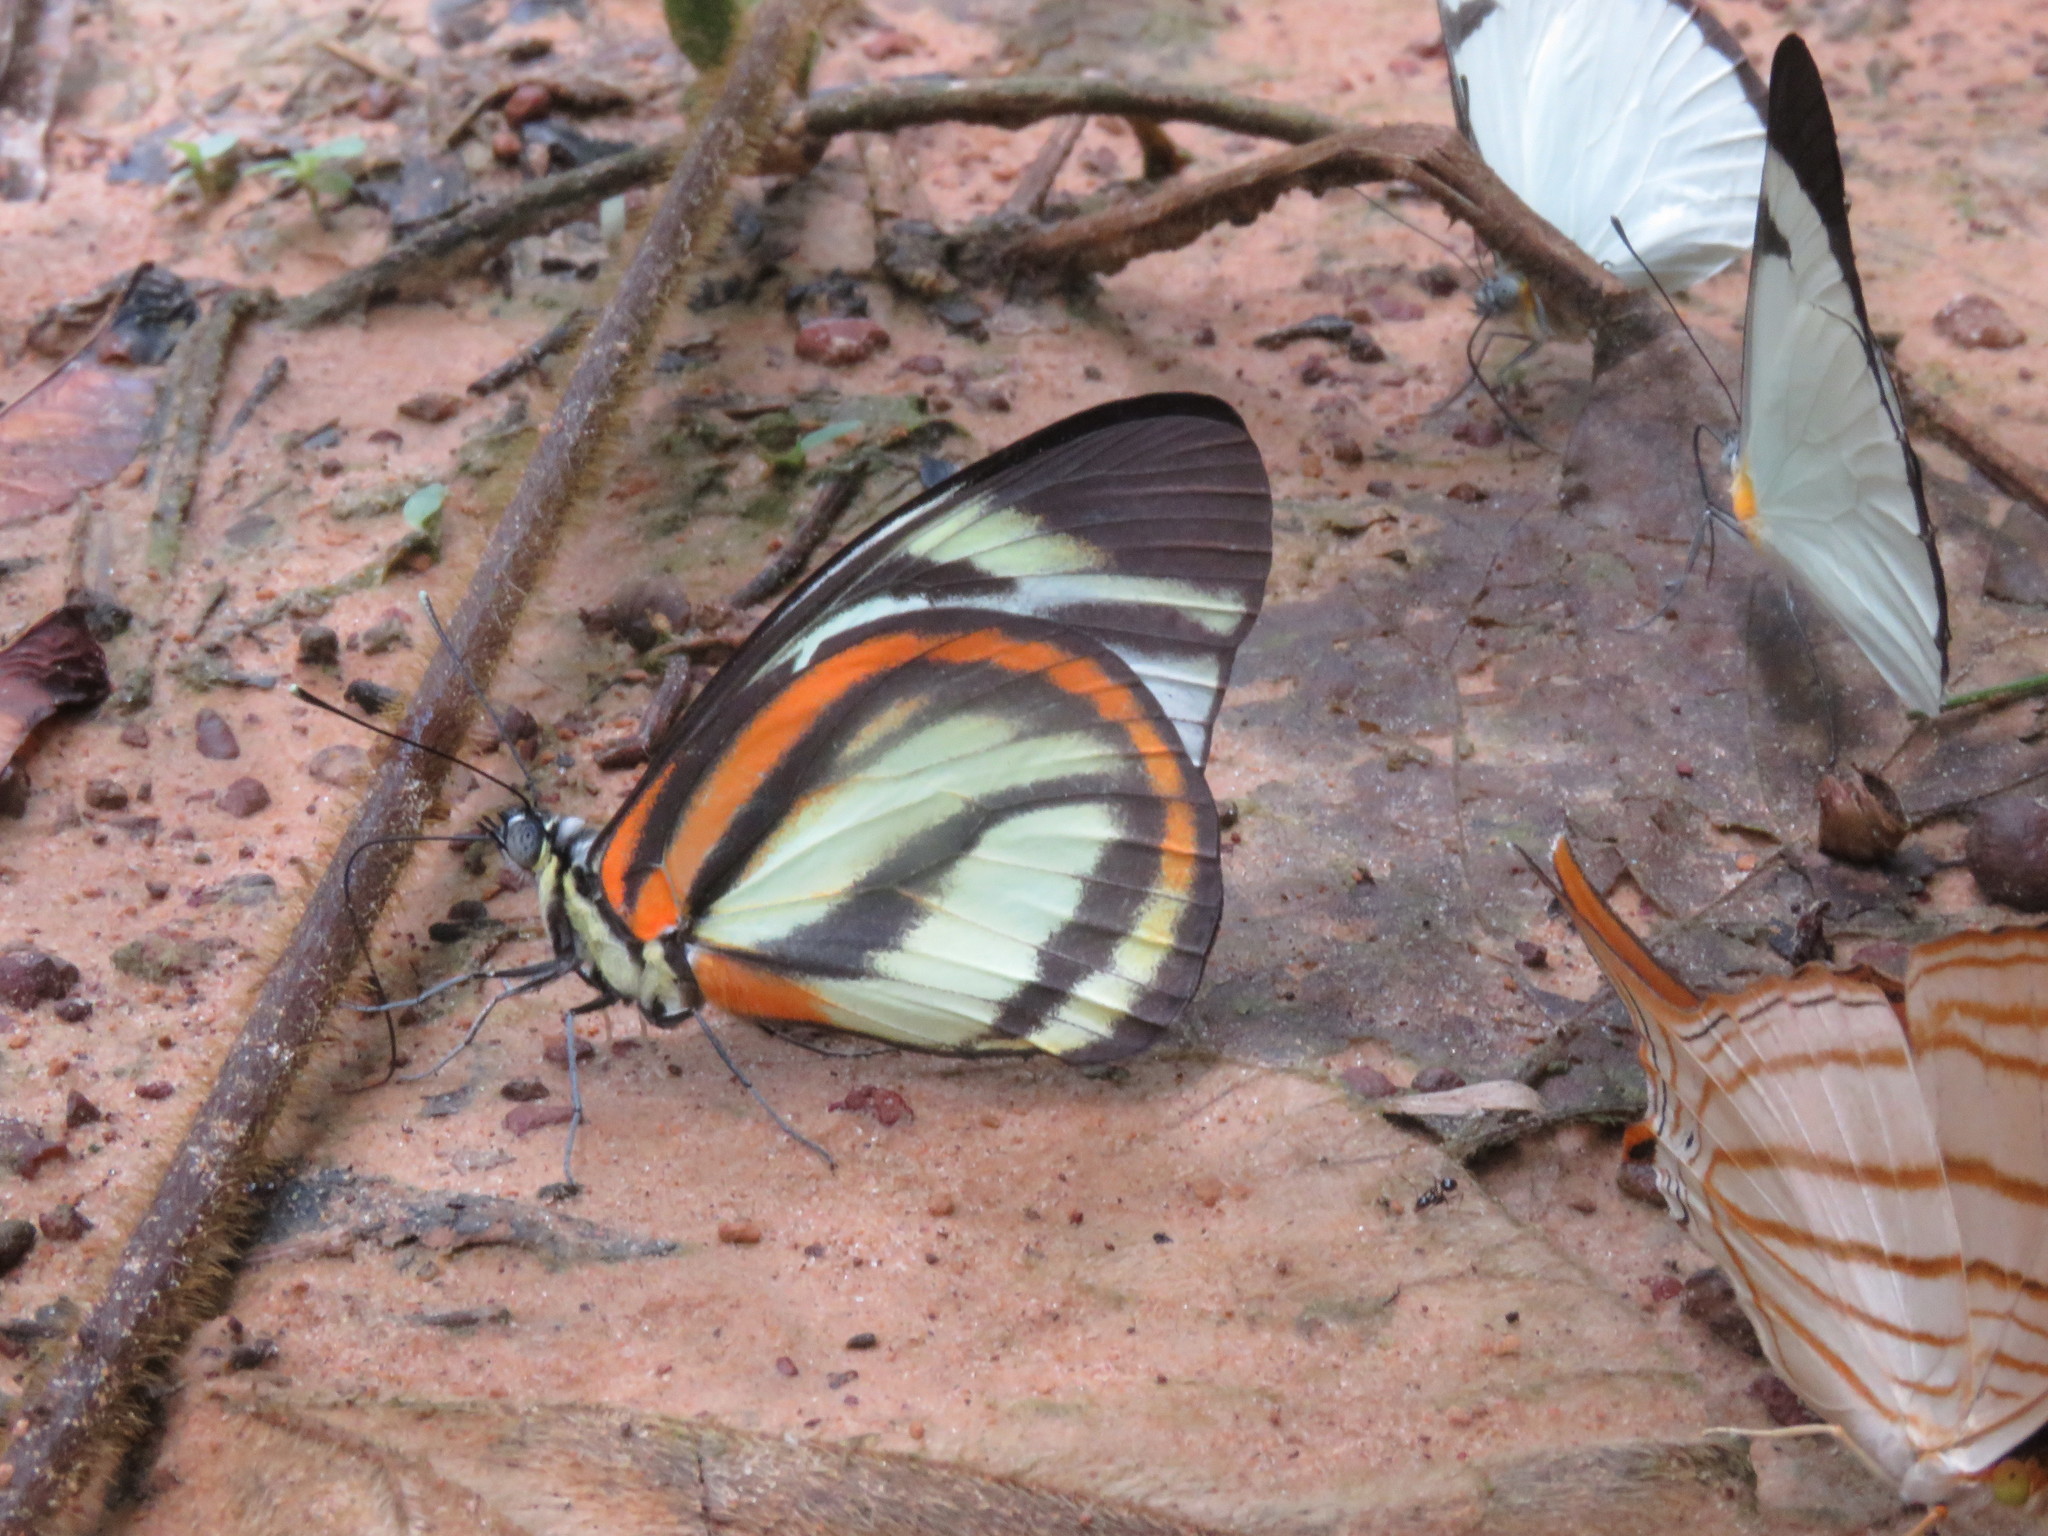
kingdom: Animalia
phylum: Arthropoda
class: Insecta
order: Lepidoptera
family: Pieridae
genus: Cunizza
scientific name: Cunizza hirlanda
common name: Hirlanda white
